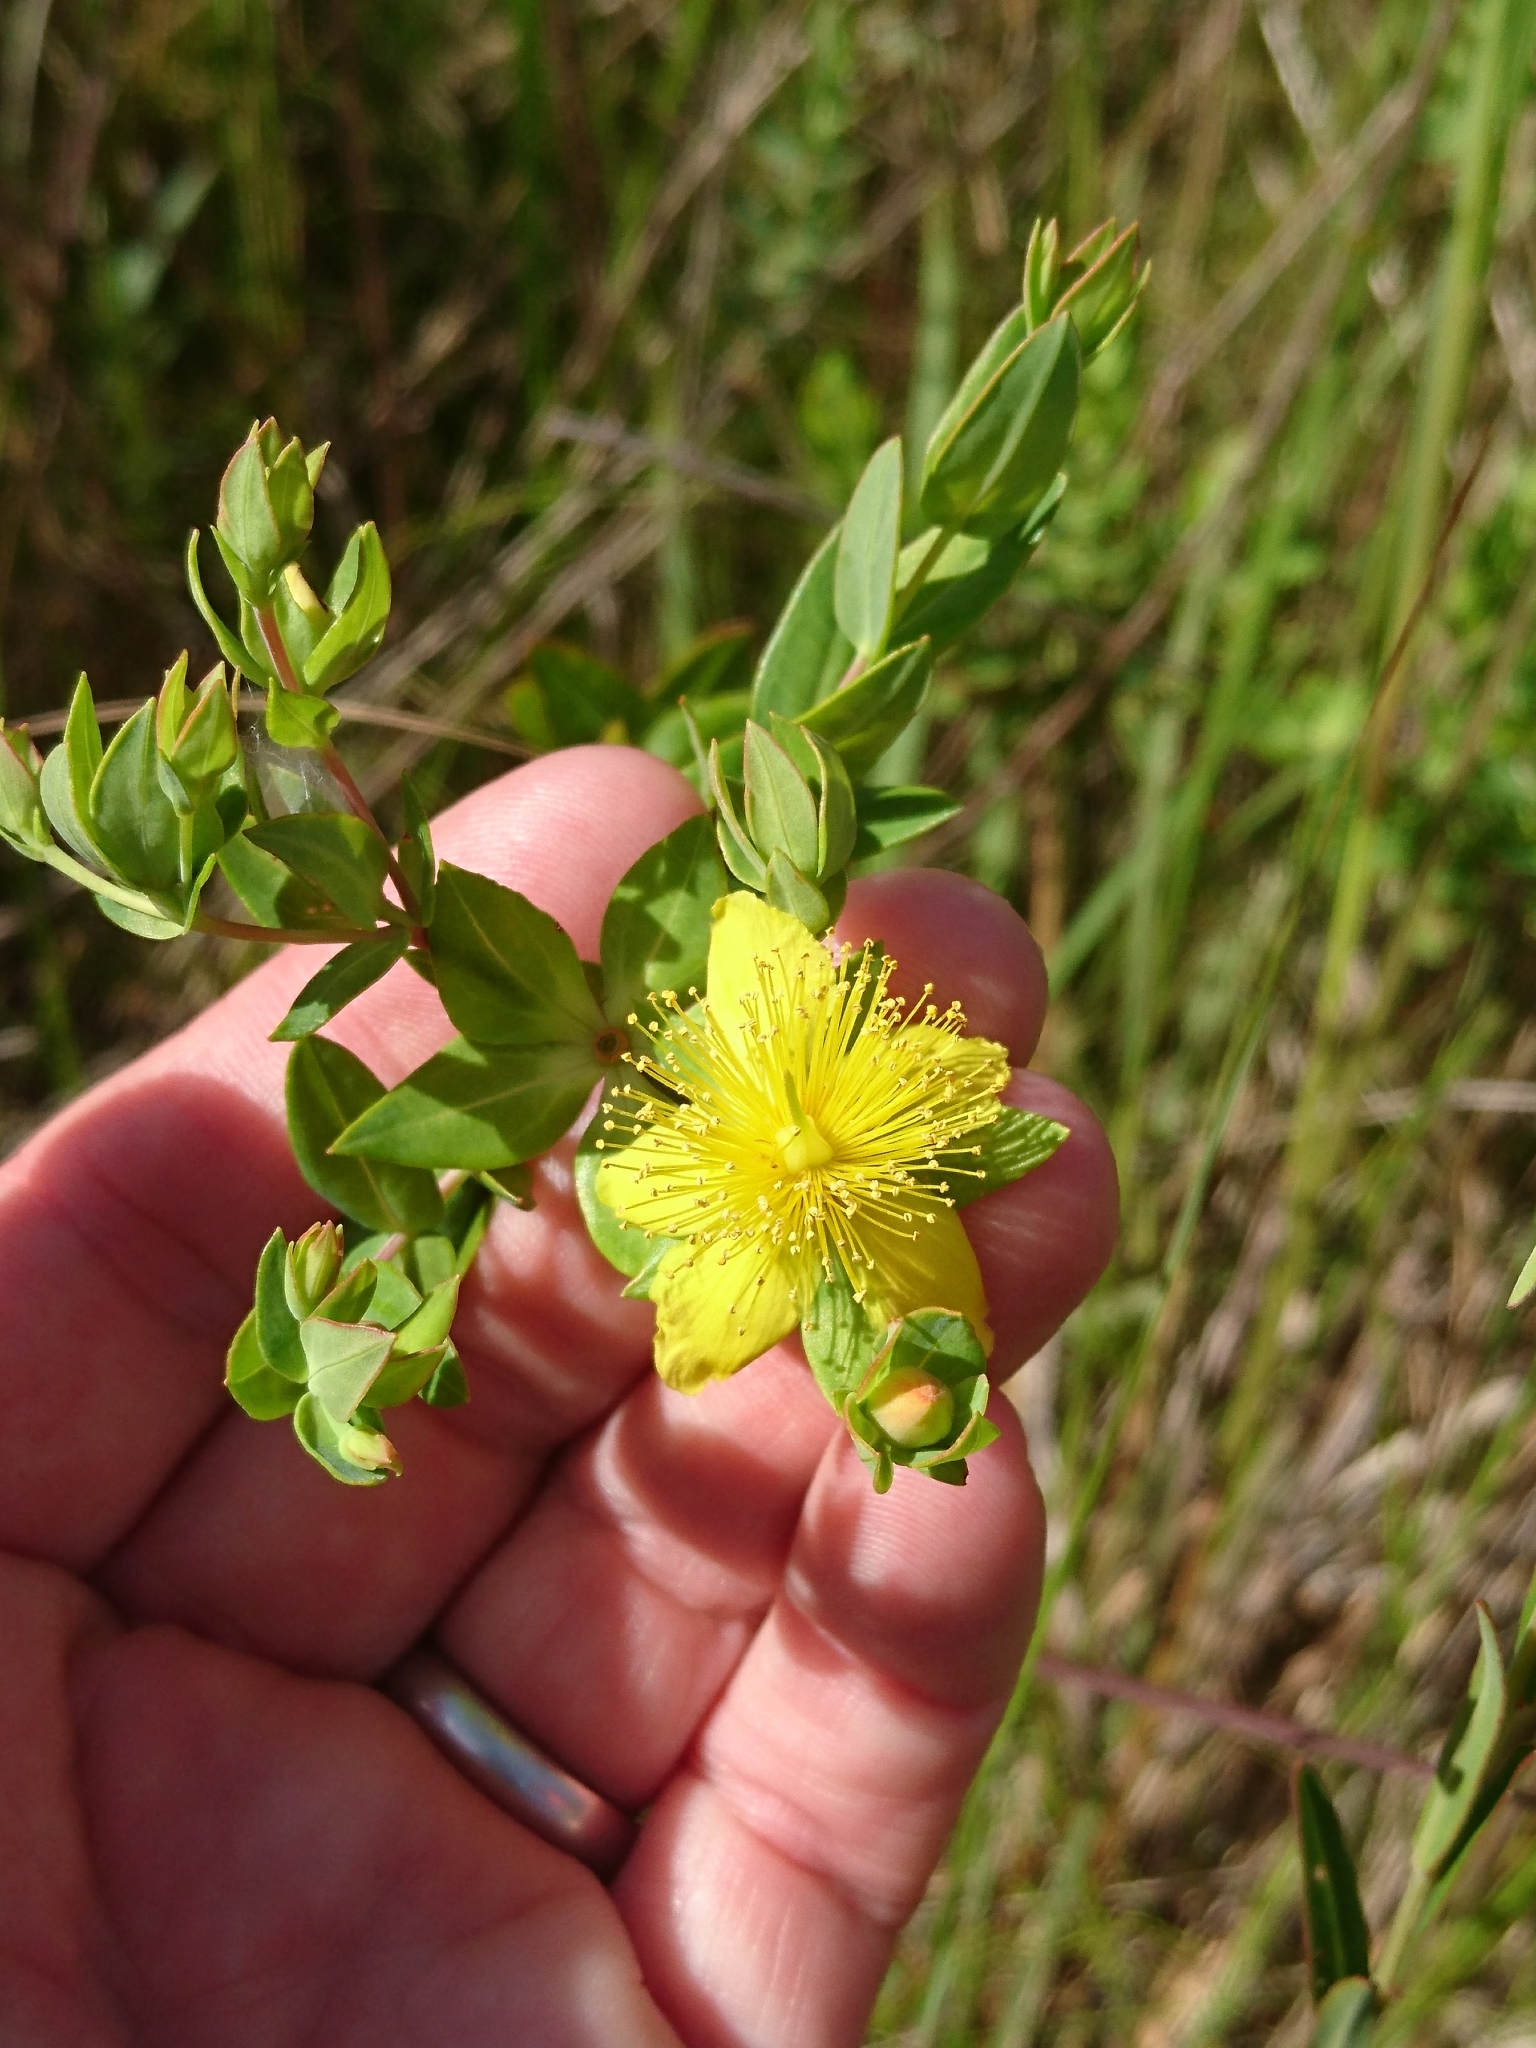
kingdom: Plantae
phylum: Tracheophyta
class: Magnoliopsida
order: Malpighiales
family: Hypericaceae
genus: Hypericum
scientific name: Hypericum myrtifolium
